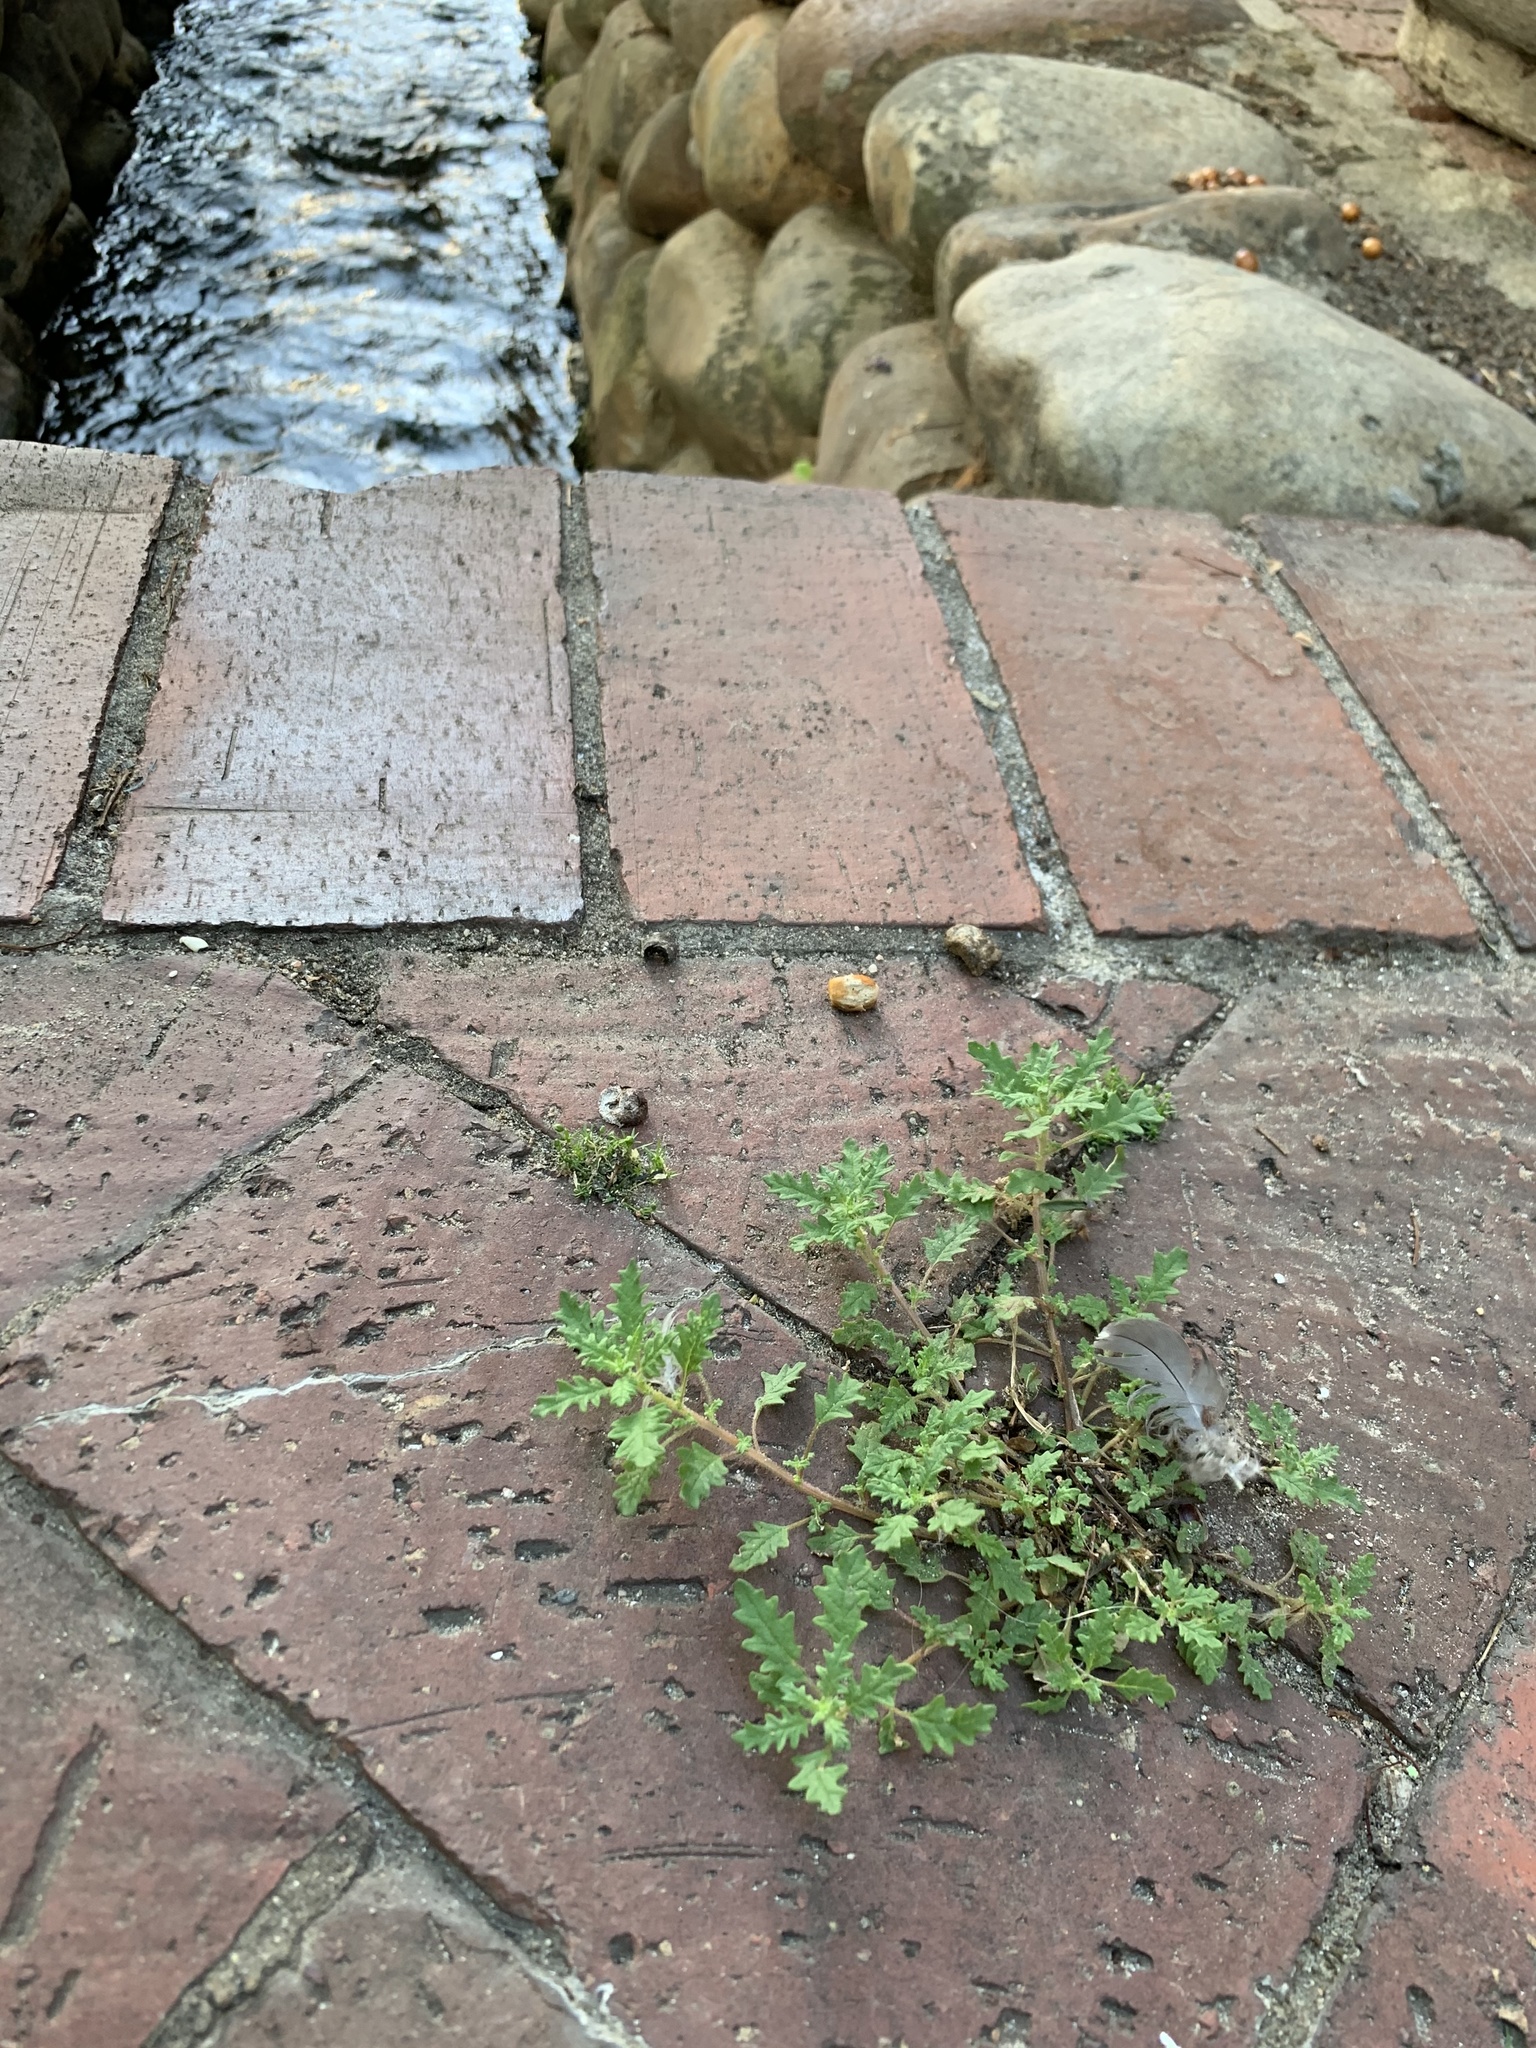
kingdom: Plantae
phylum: Tracheophyta
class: Magnoliopsida
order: Caryophyllales
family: Amaranthaceae
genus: Dysphania
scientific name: Dysphania pumilio
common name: Clammy goosefoot
